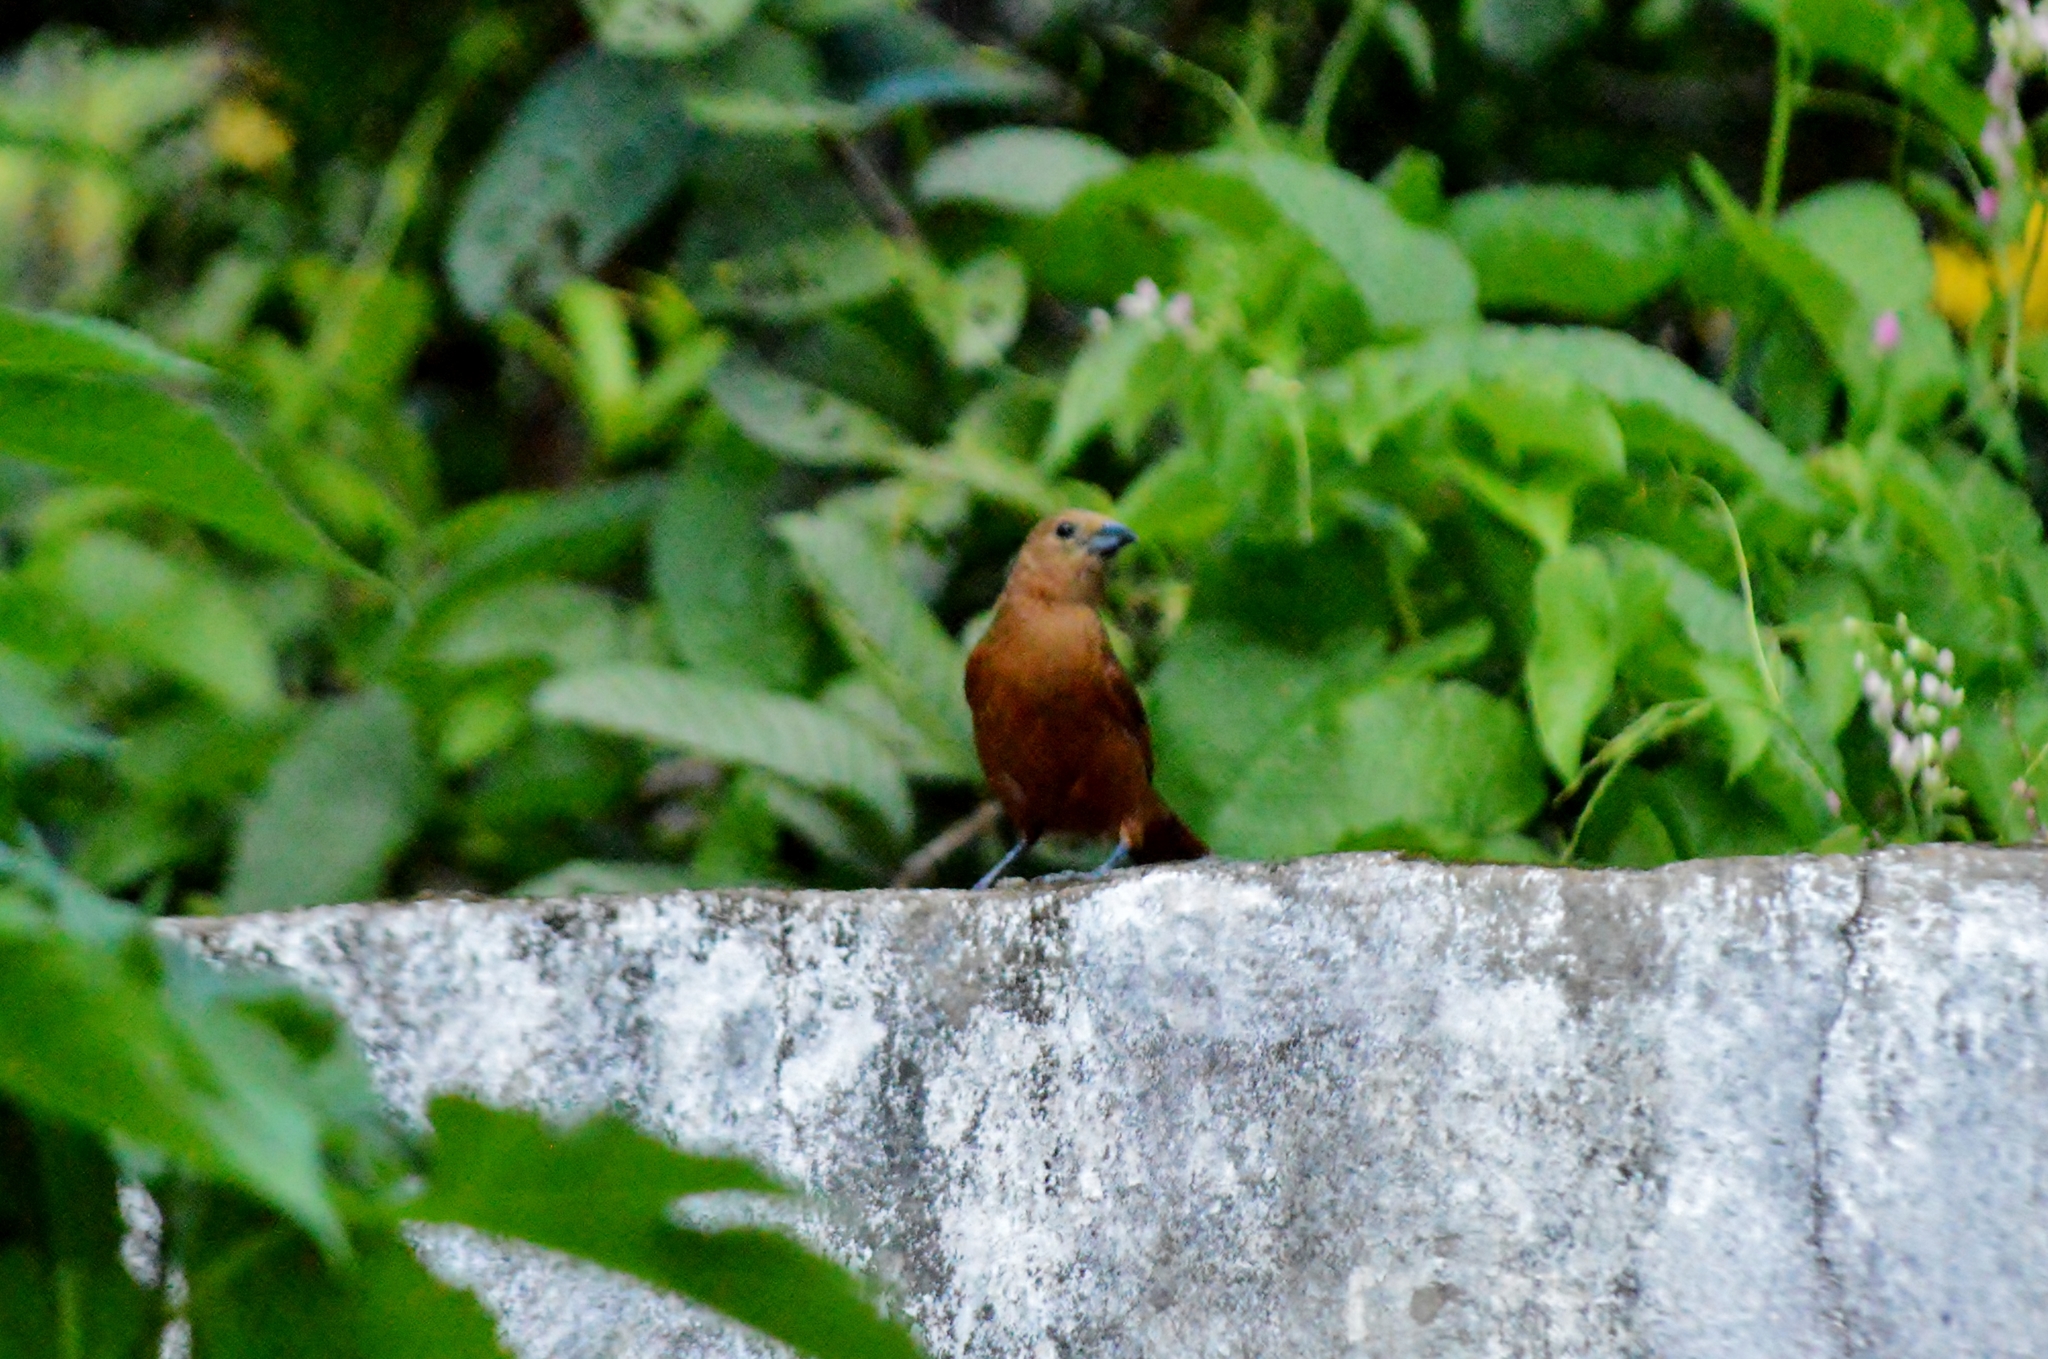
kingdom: Animalia
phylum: Chordata
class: Aves
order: Passeriformes
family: Thraupidae
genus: Tachyphonus
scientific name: Tachyphonus rufus
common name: White-lined tanager
